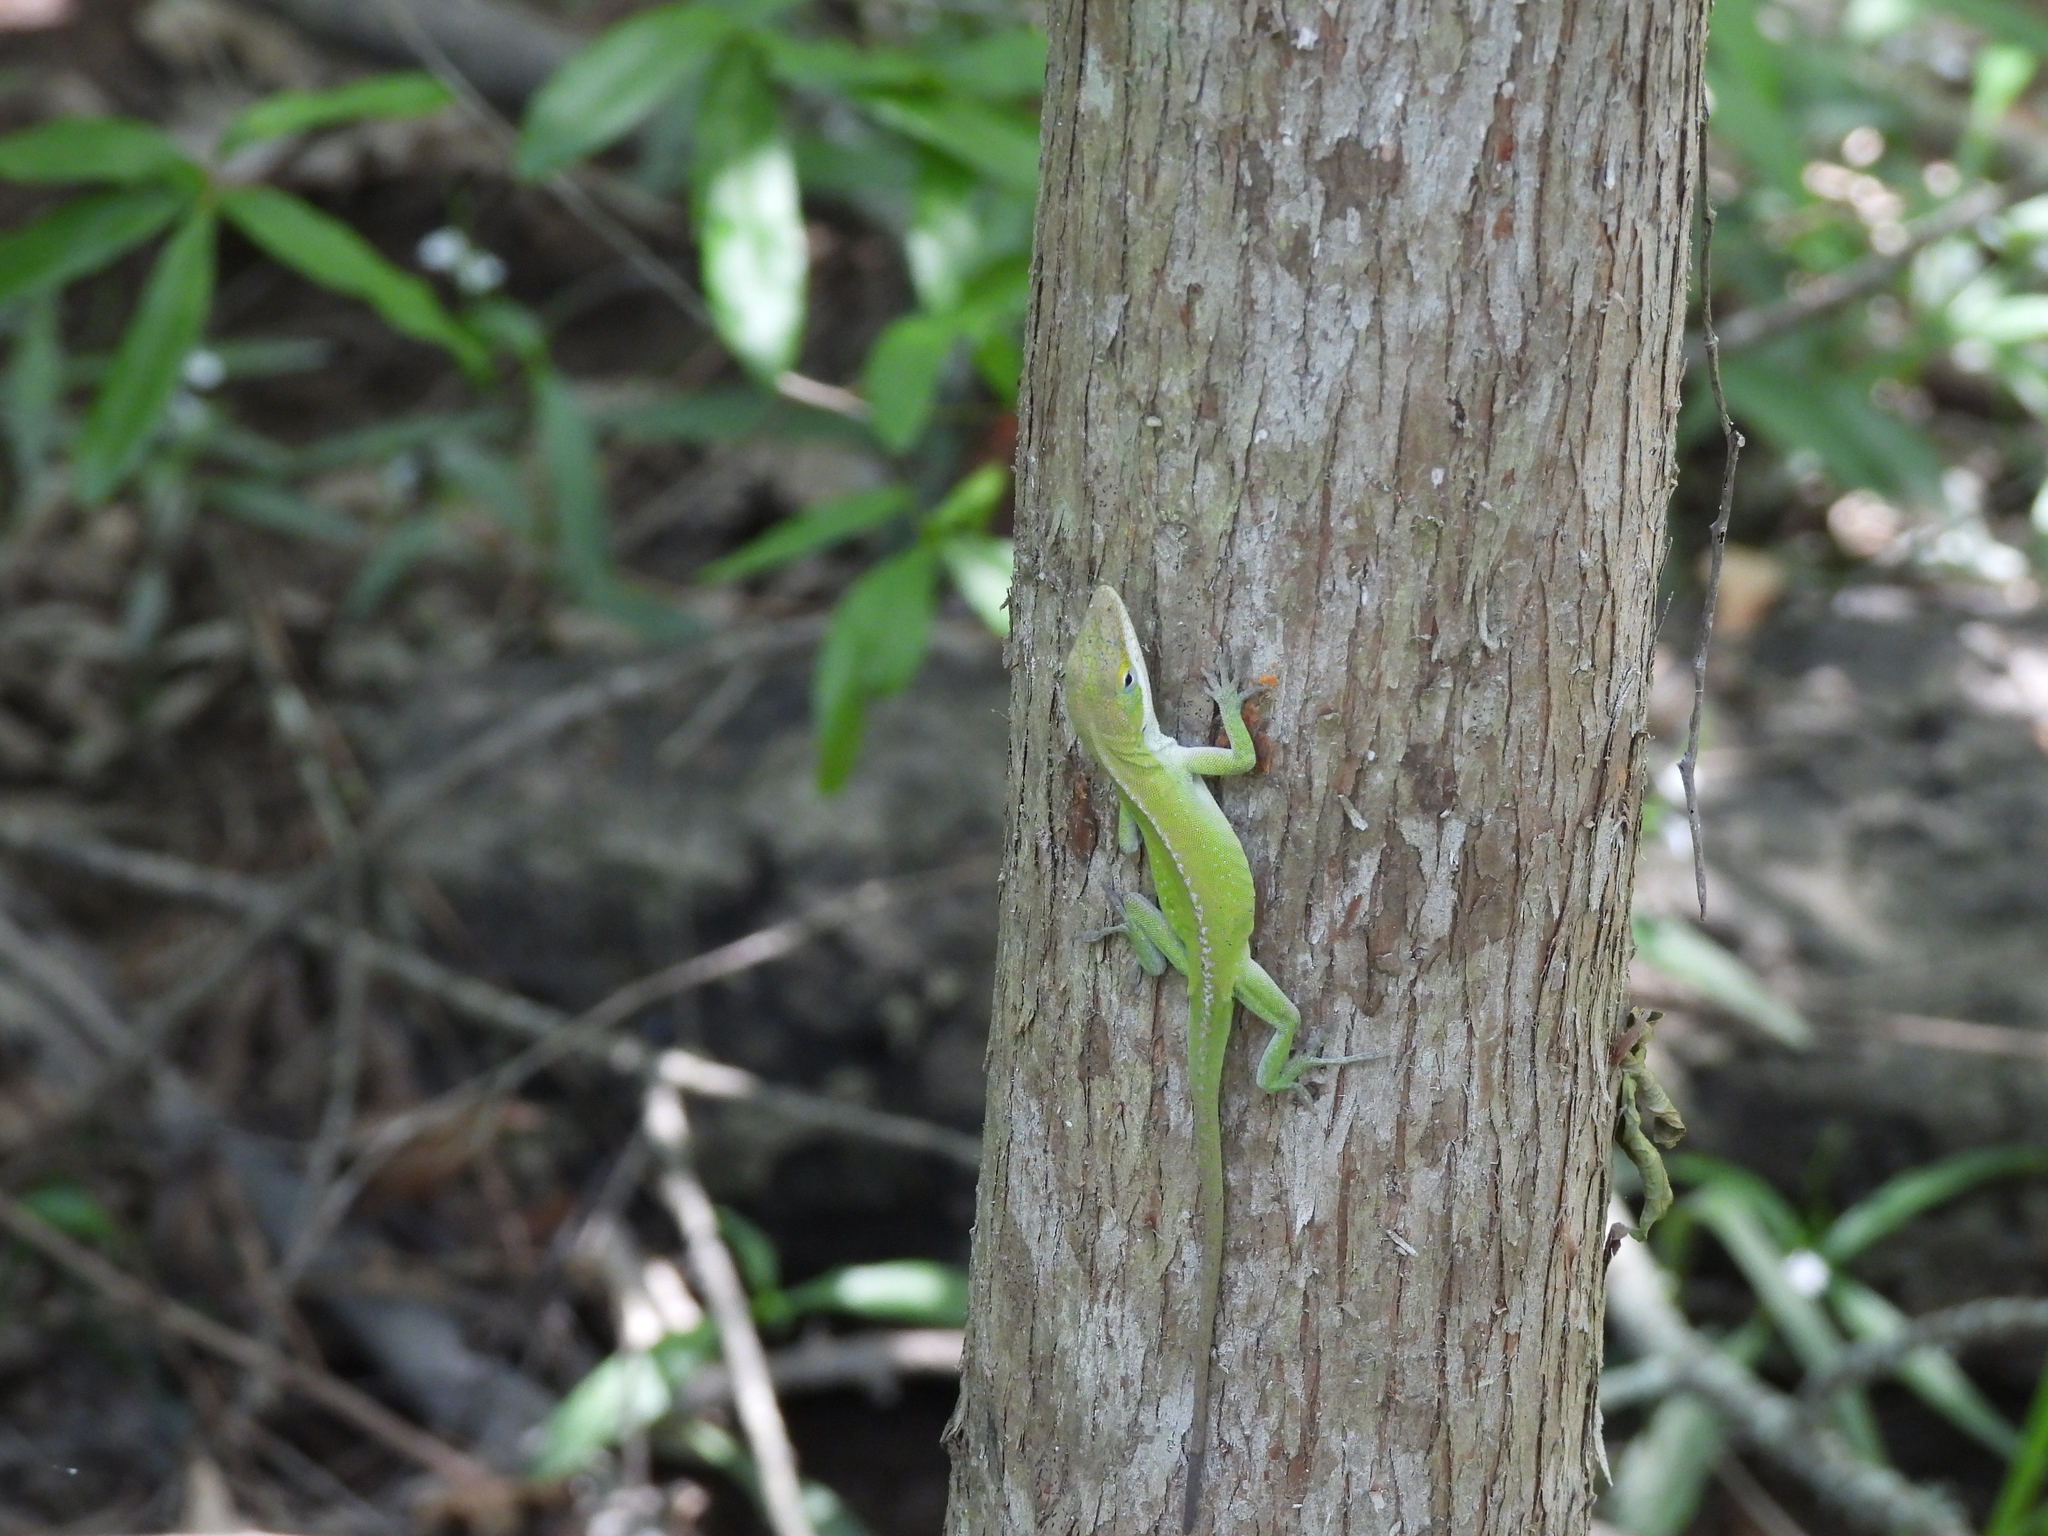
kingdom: Animalia
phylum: Chordata
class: Squamata
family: Dactyloidae
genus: Anolis
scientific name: Anolis carolinensis
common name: Green anole
